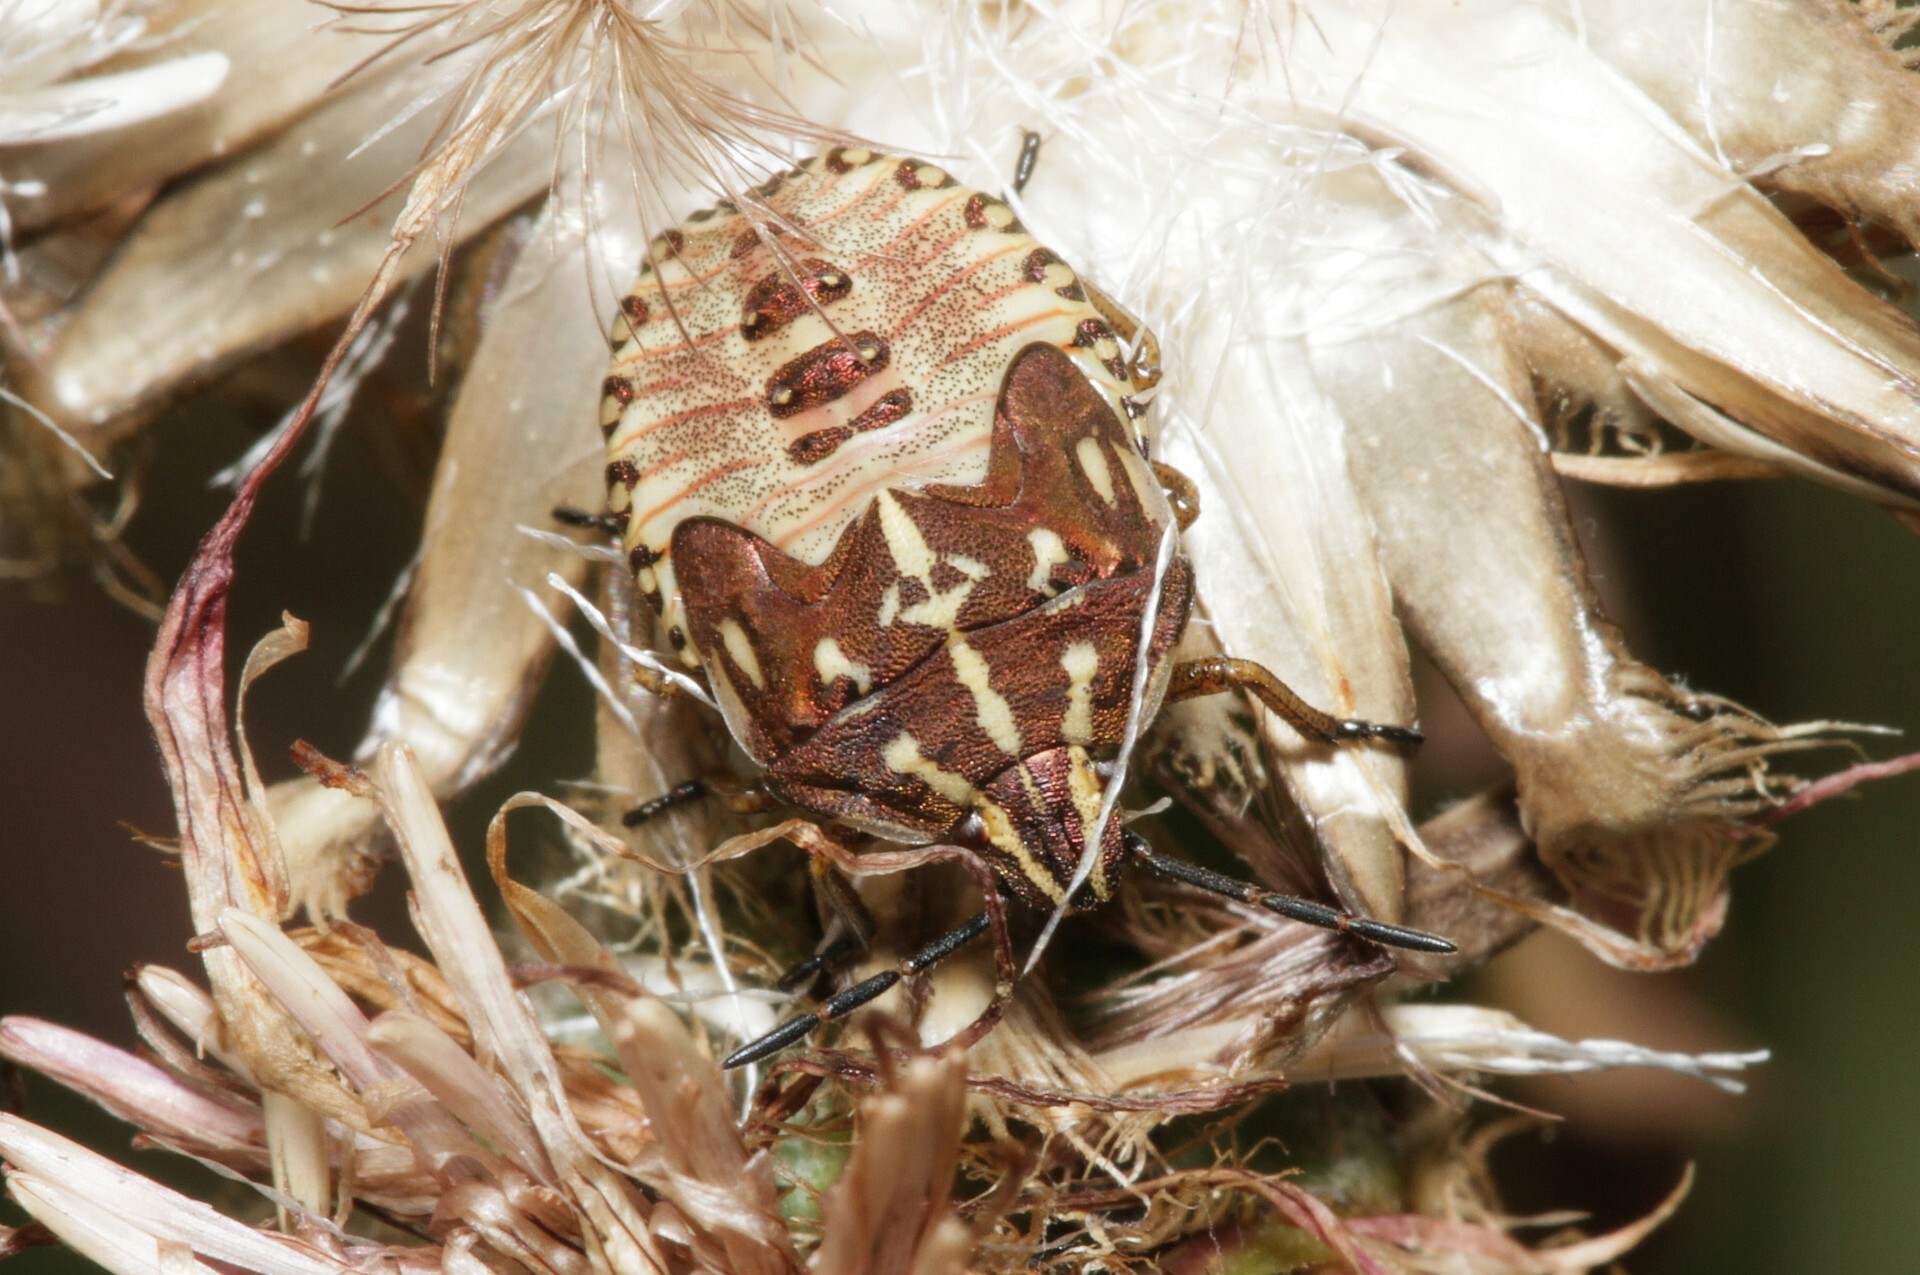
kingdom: Animalia
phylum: Arthropoda
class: Insecta
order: Hemiptera
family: Pentatomidae
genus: Carpocoris
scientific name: Carpocoris purpureipennis
